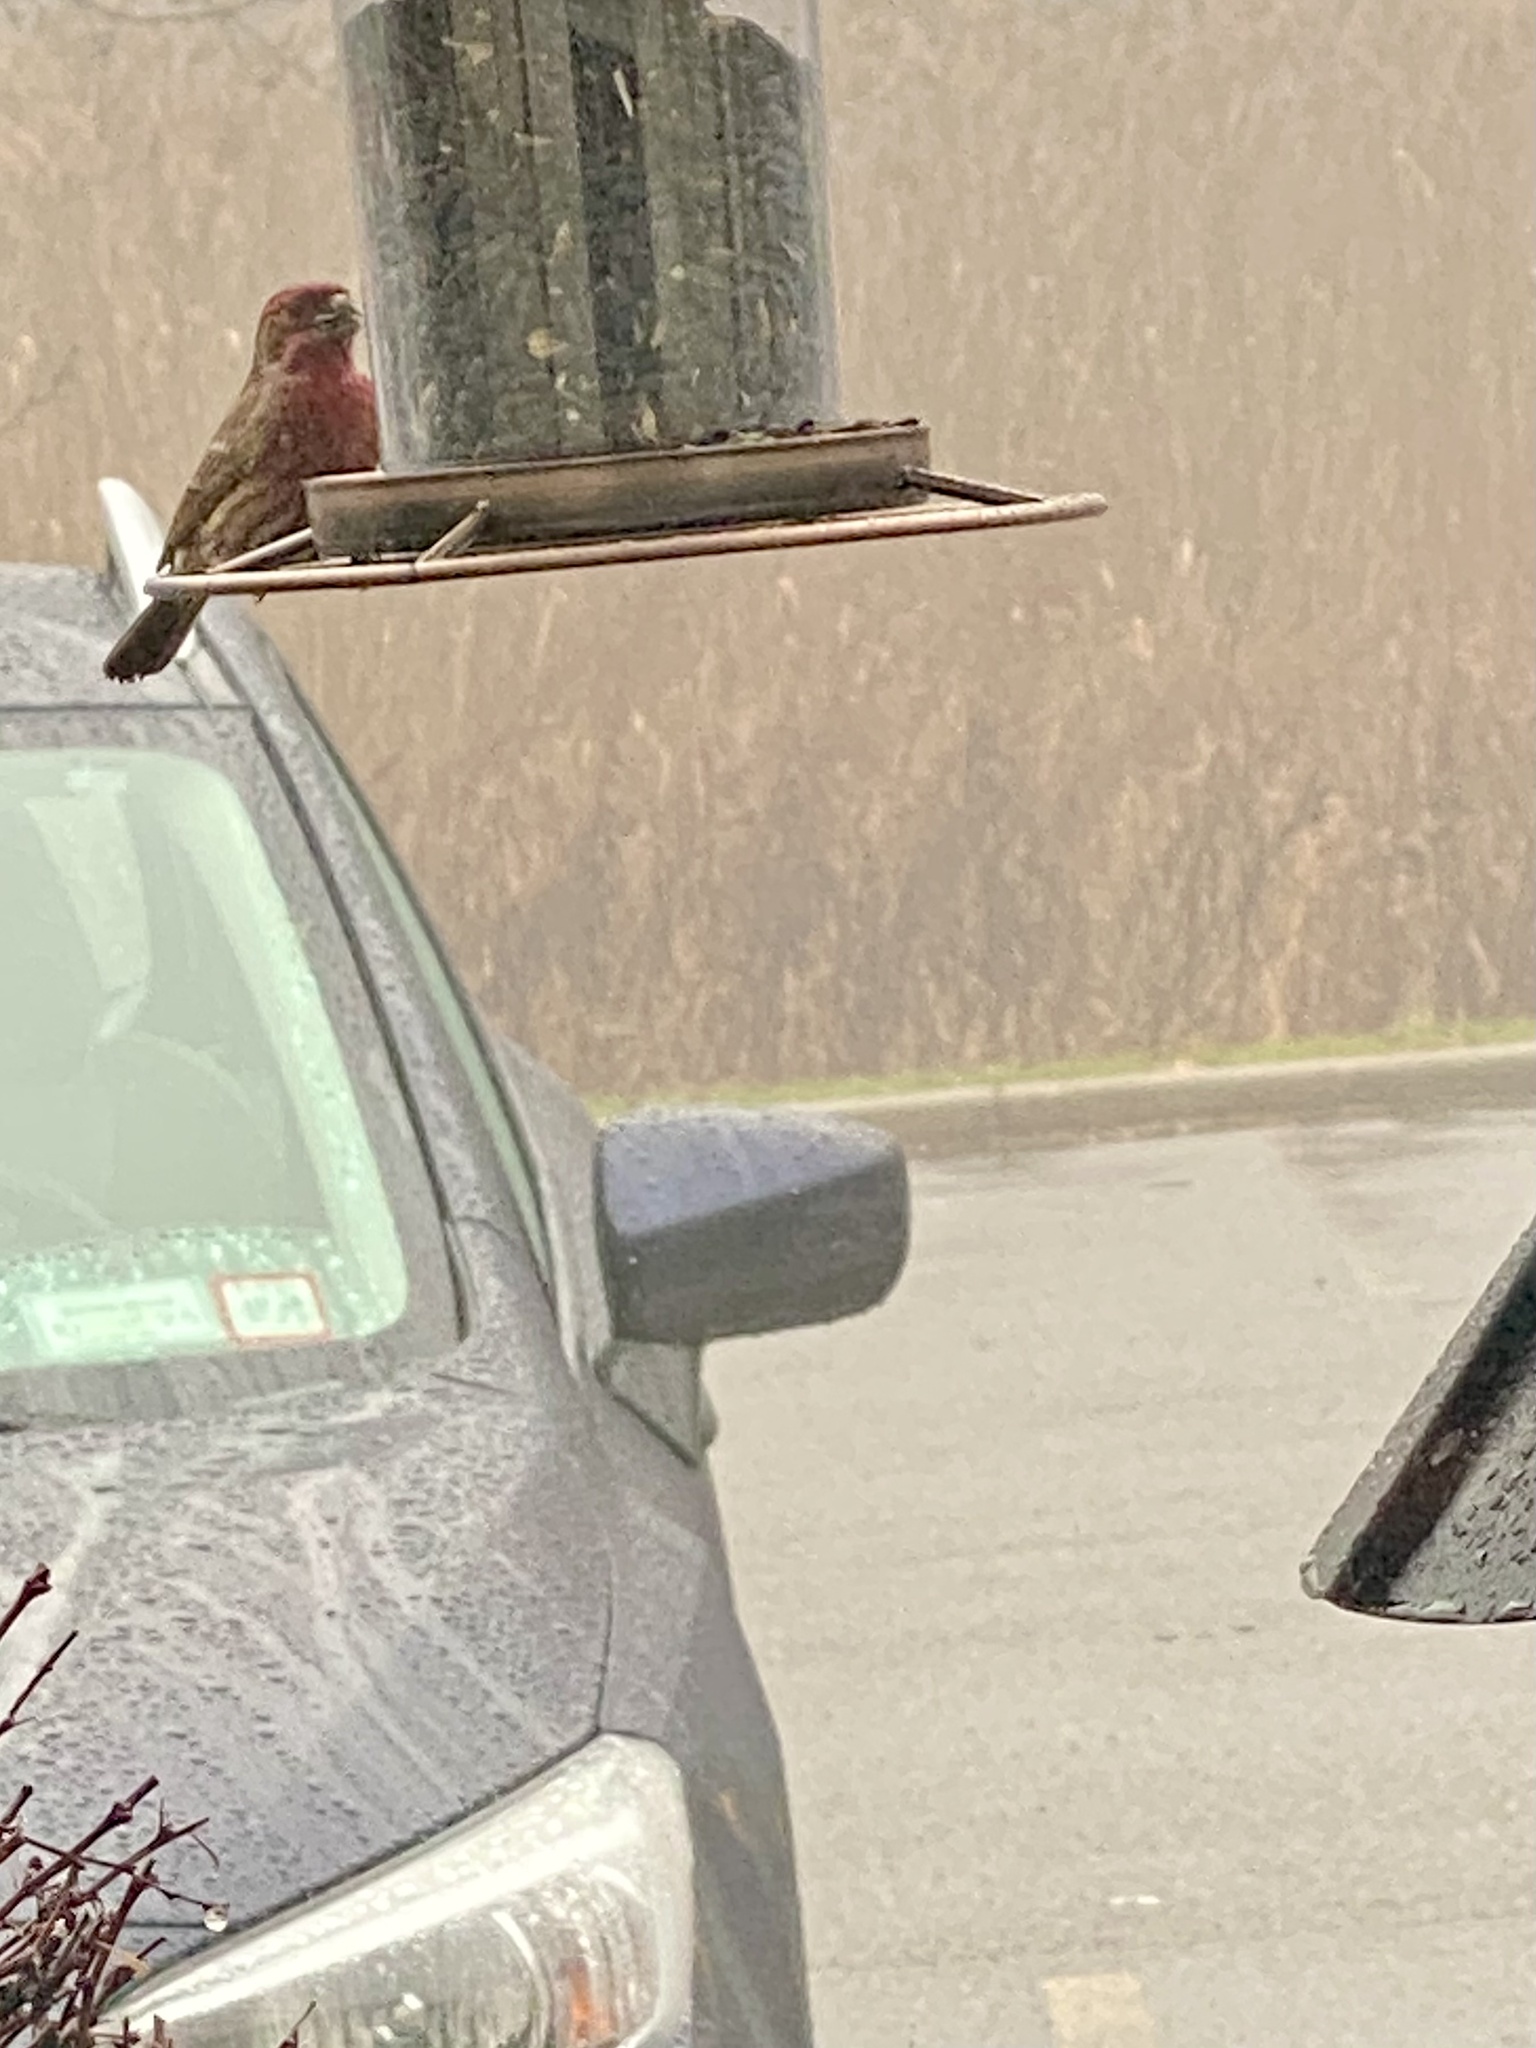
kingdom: Animalia
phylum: Chordata
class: Aves
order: Passeriformes
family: Fringillidae
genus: Haemorhous
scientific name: Haemorhous mexicanus
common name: House finch
